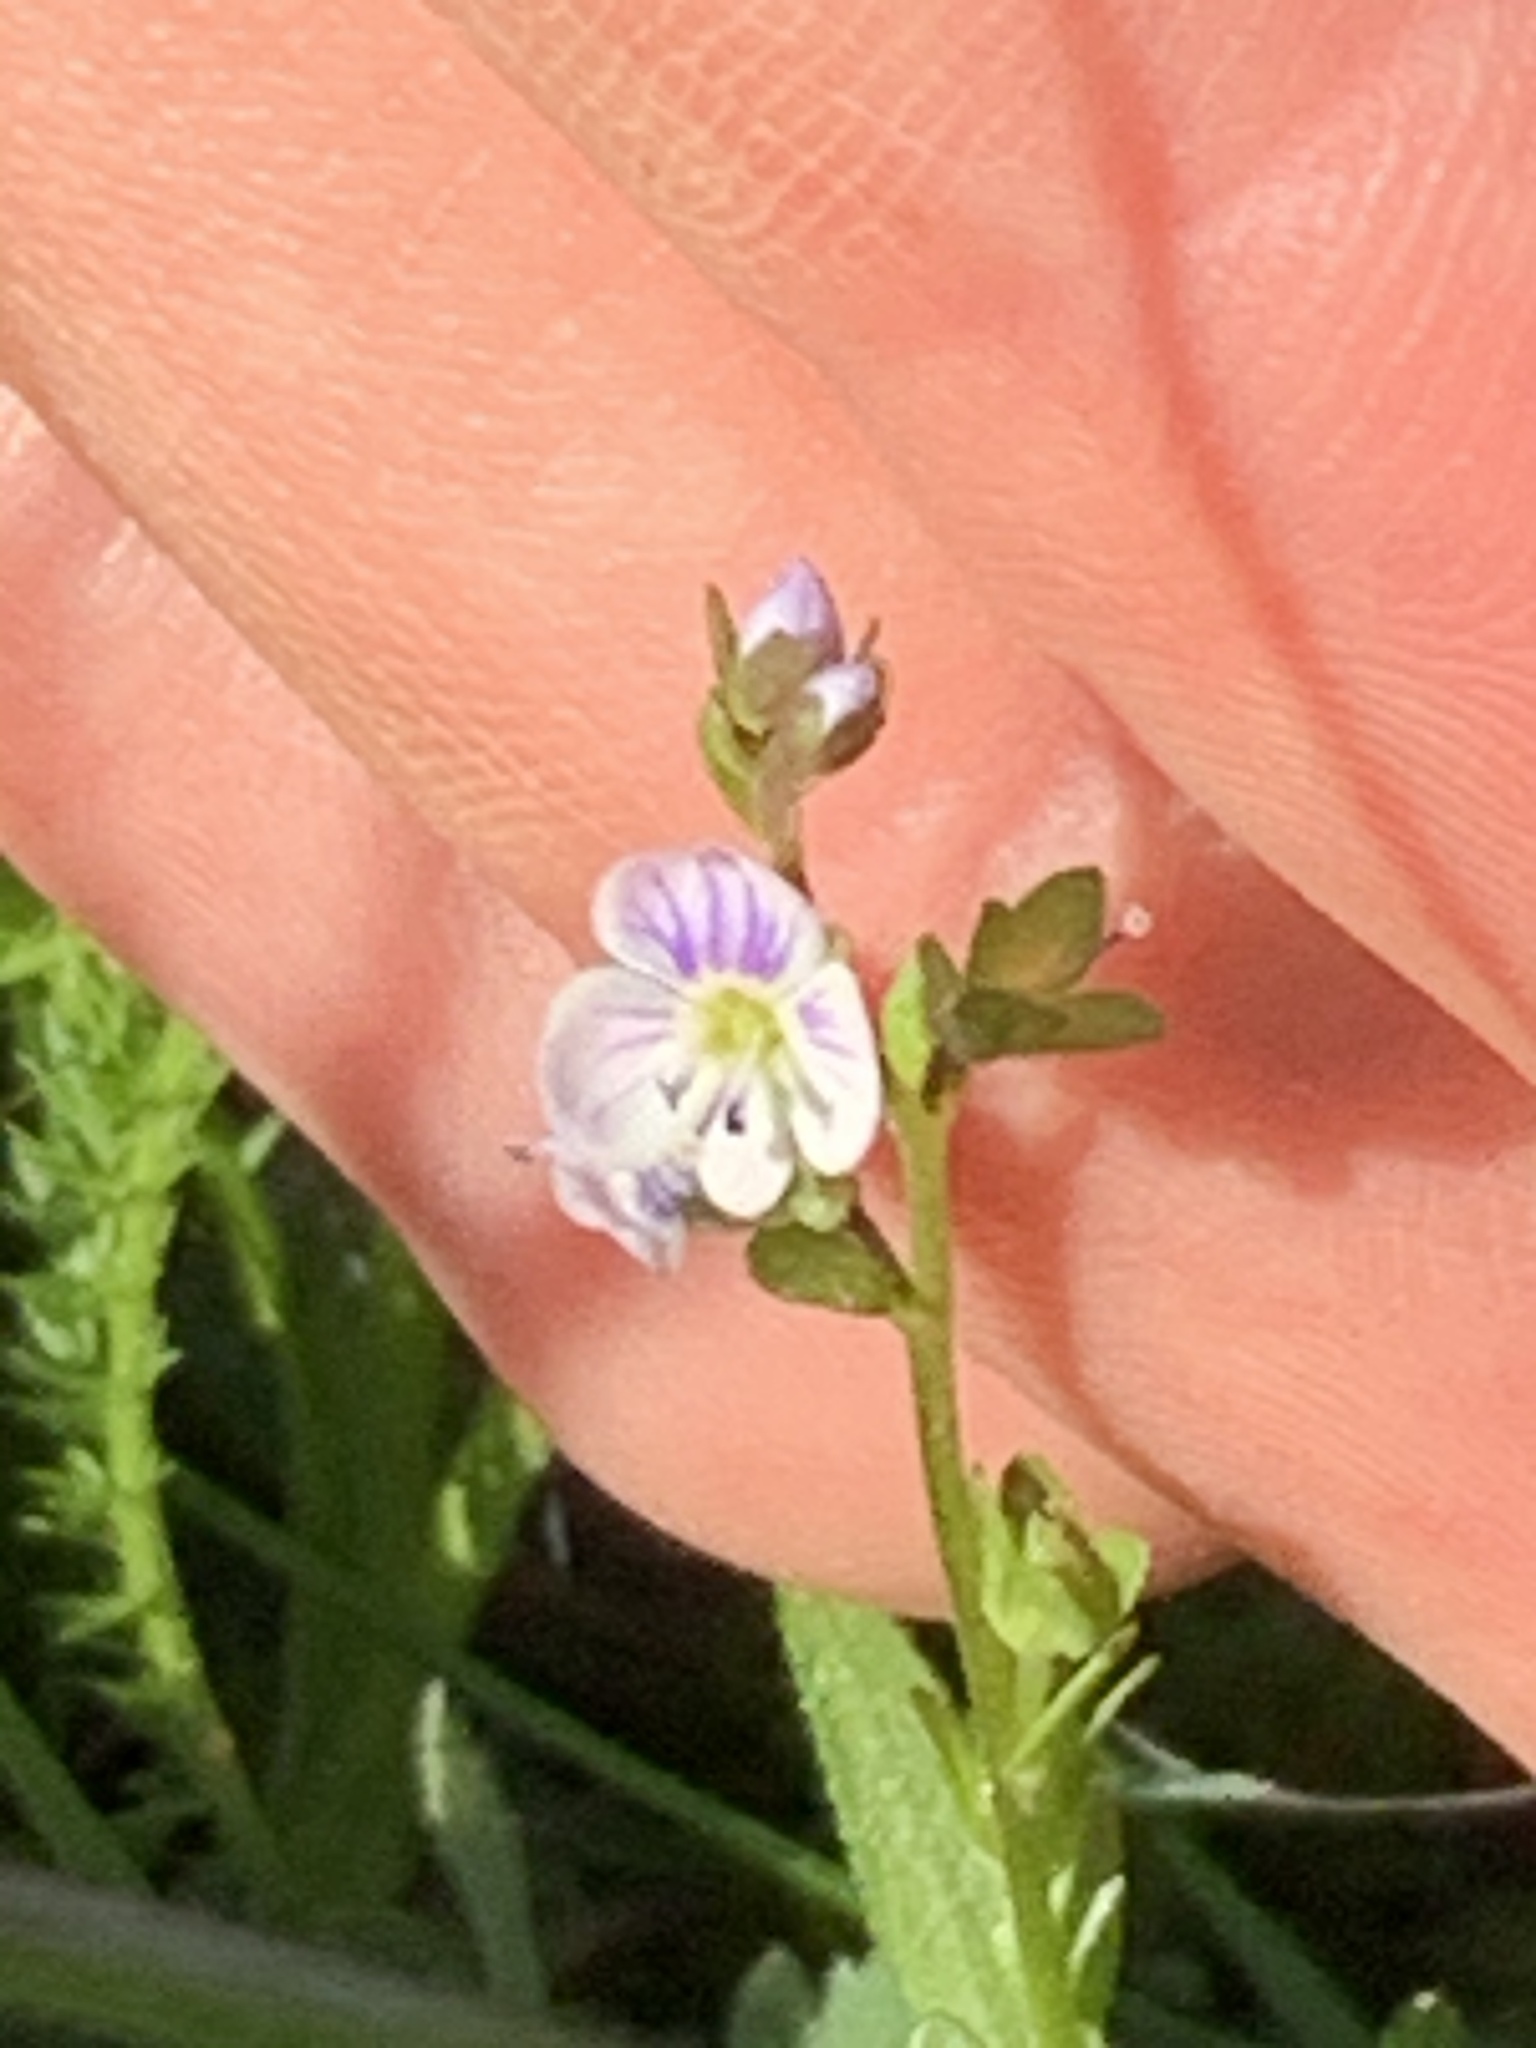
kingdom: Plantae
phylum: Tracheophyta
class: Magnoliopsida
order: Lamiales
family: Plantaginaceae
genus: Veronica
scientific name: Veronica serpyllifolia
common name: Thyme-leaved speedwell
